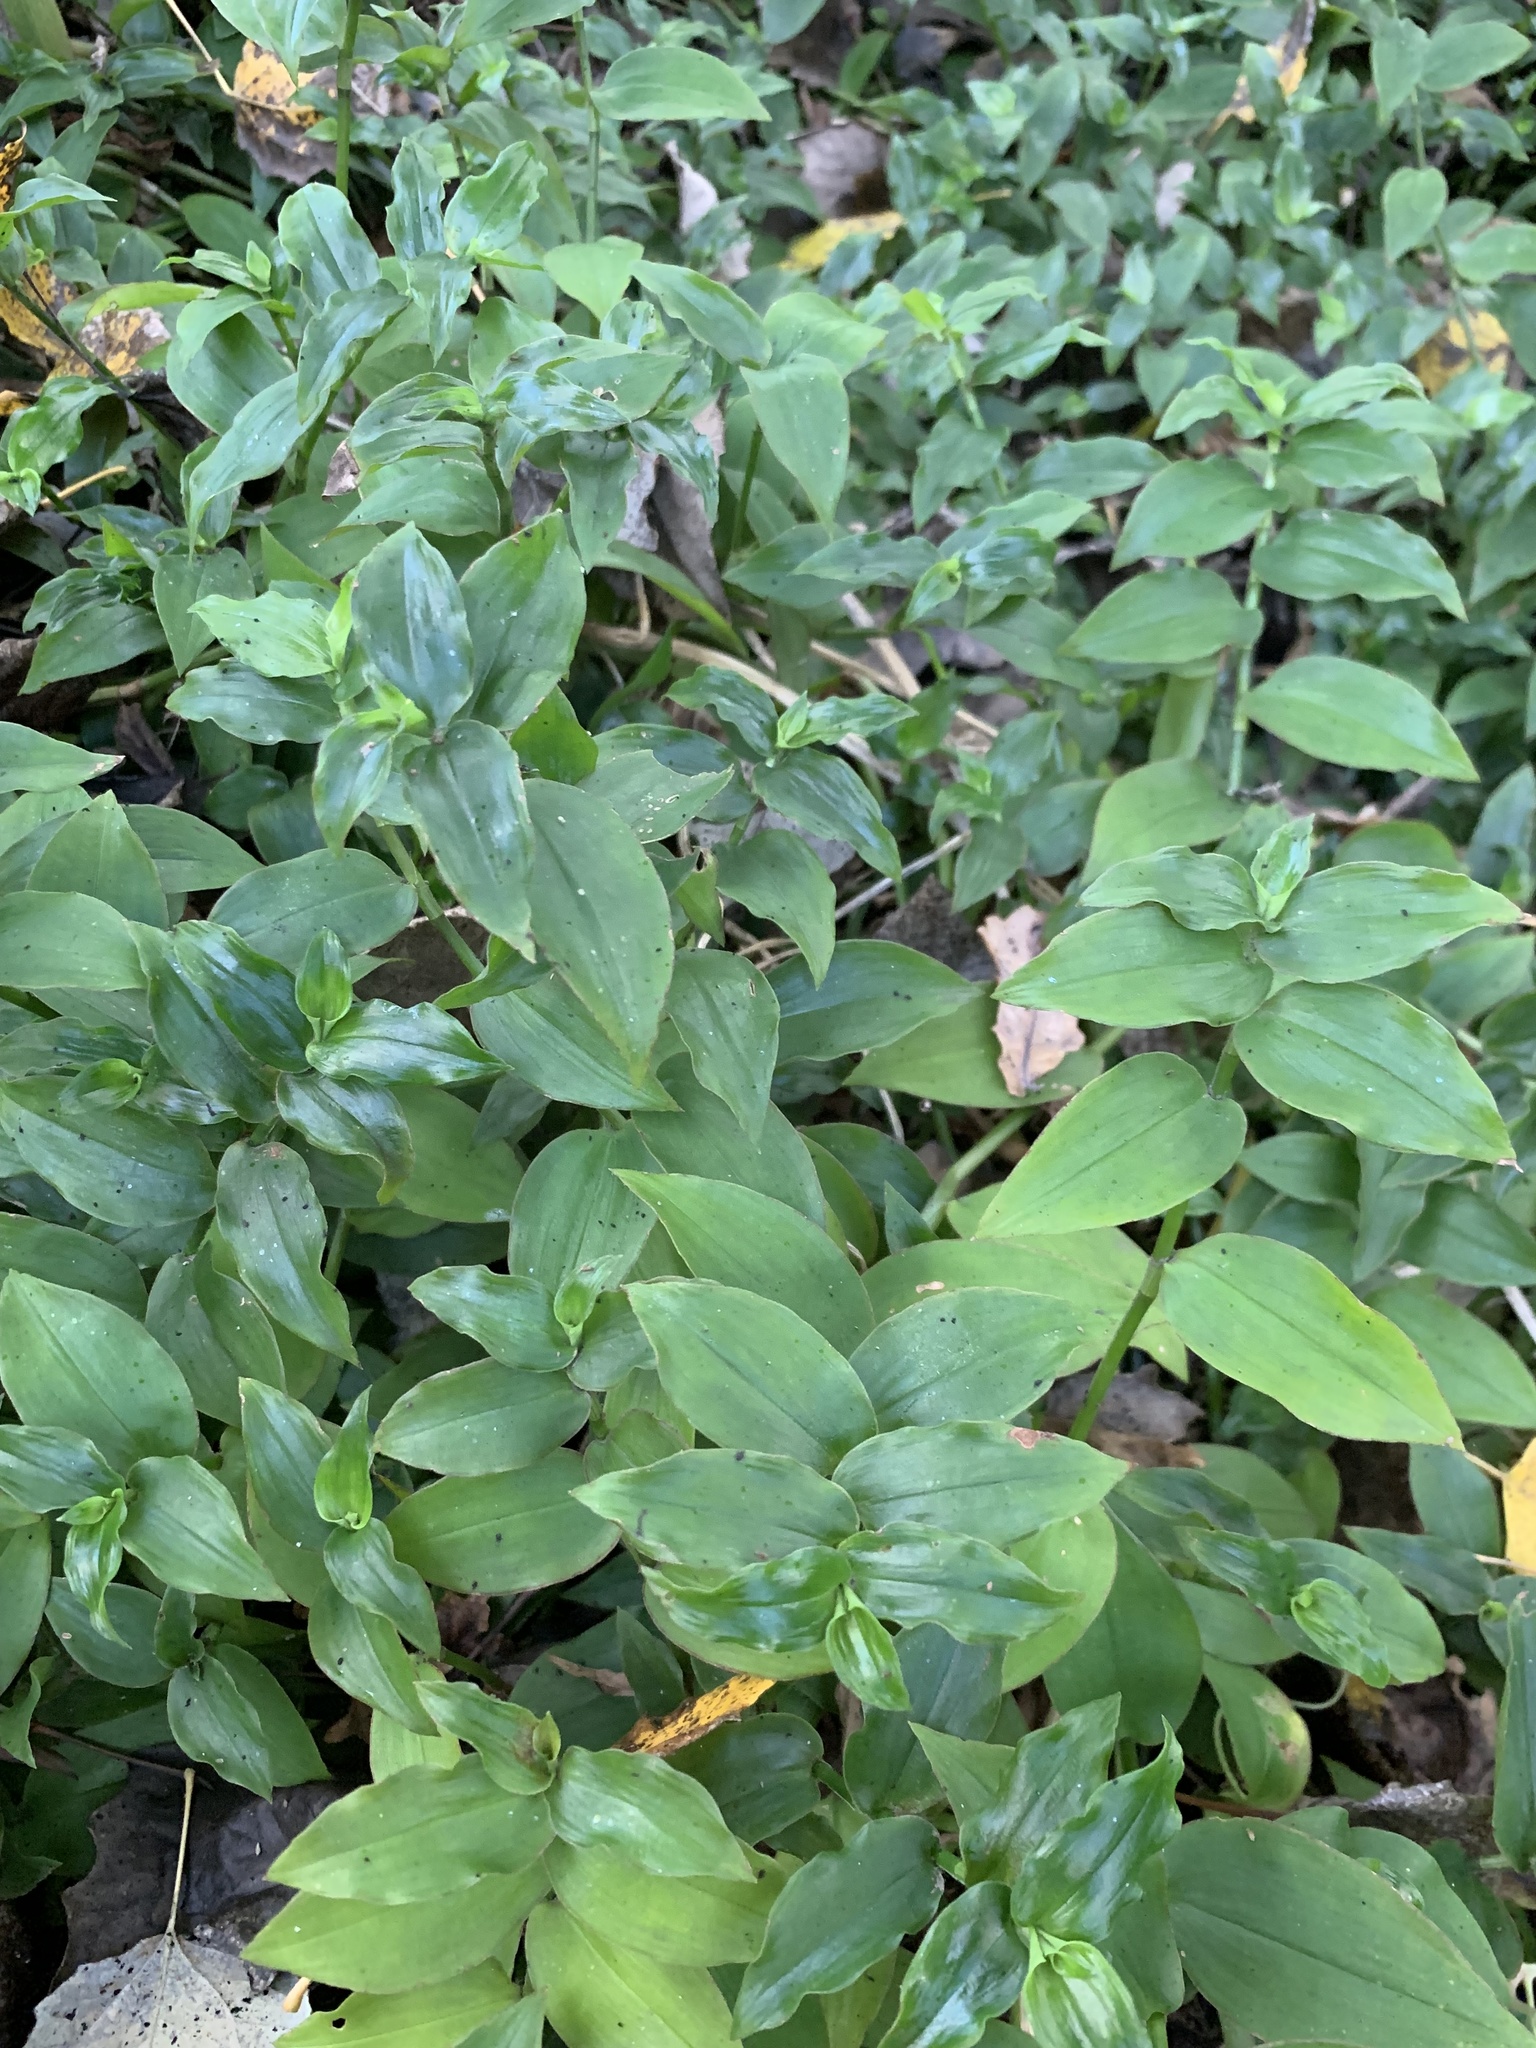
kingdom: Plantae
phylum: Tracheophyta
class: Liliopsida
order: Commelinales
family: Commelinaceae
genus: Tradescantia
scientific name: Tradescantia fluminensis
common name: Wandering-jew
